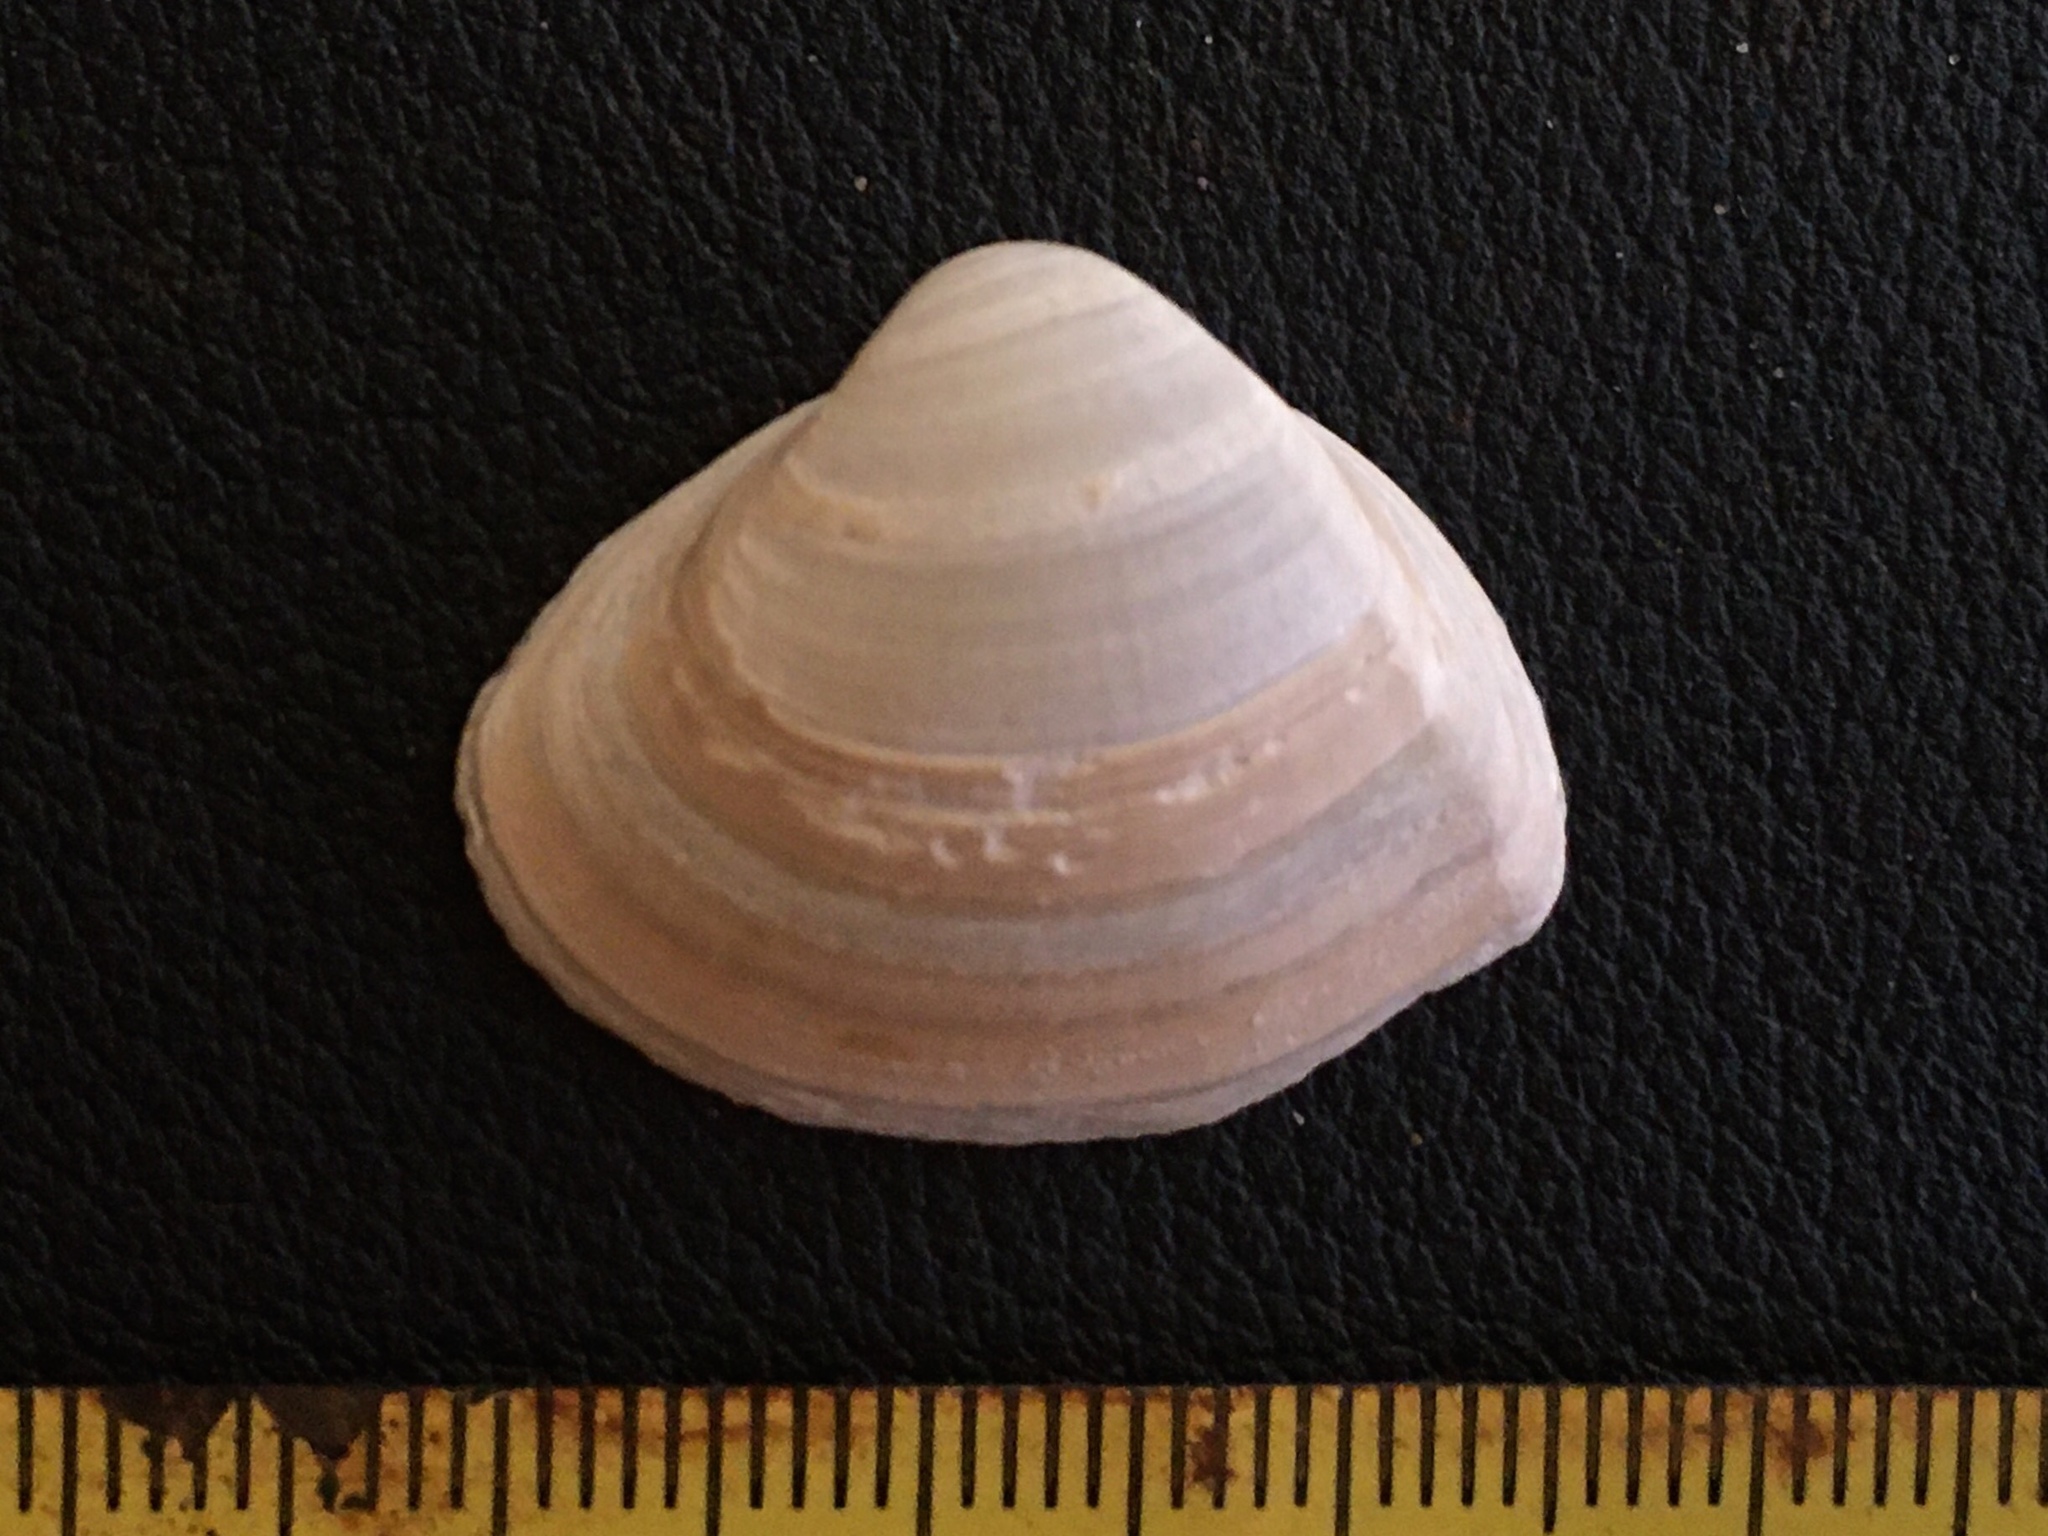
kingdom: Animalia
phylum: Mollusca
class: Bivalvia
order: Venerida
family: Mactridae
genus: Mactra
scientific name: Mactra isabelleana
